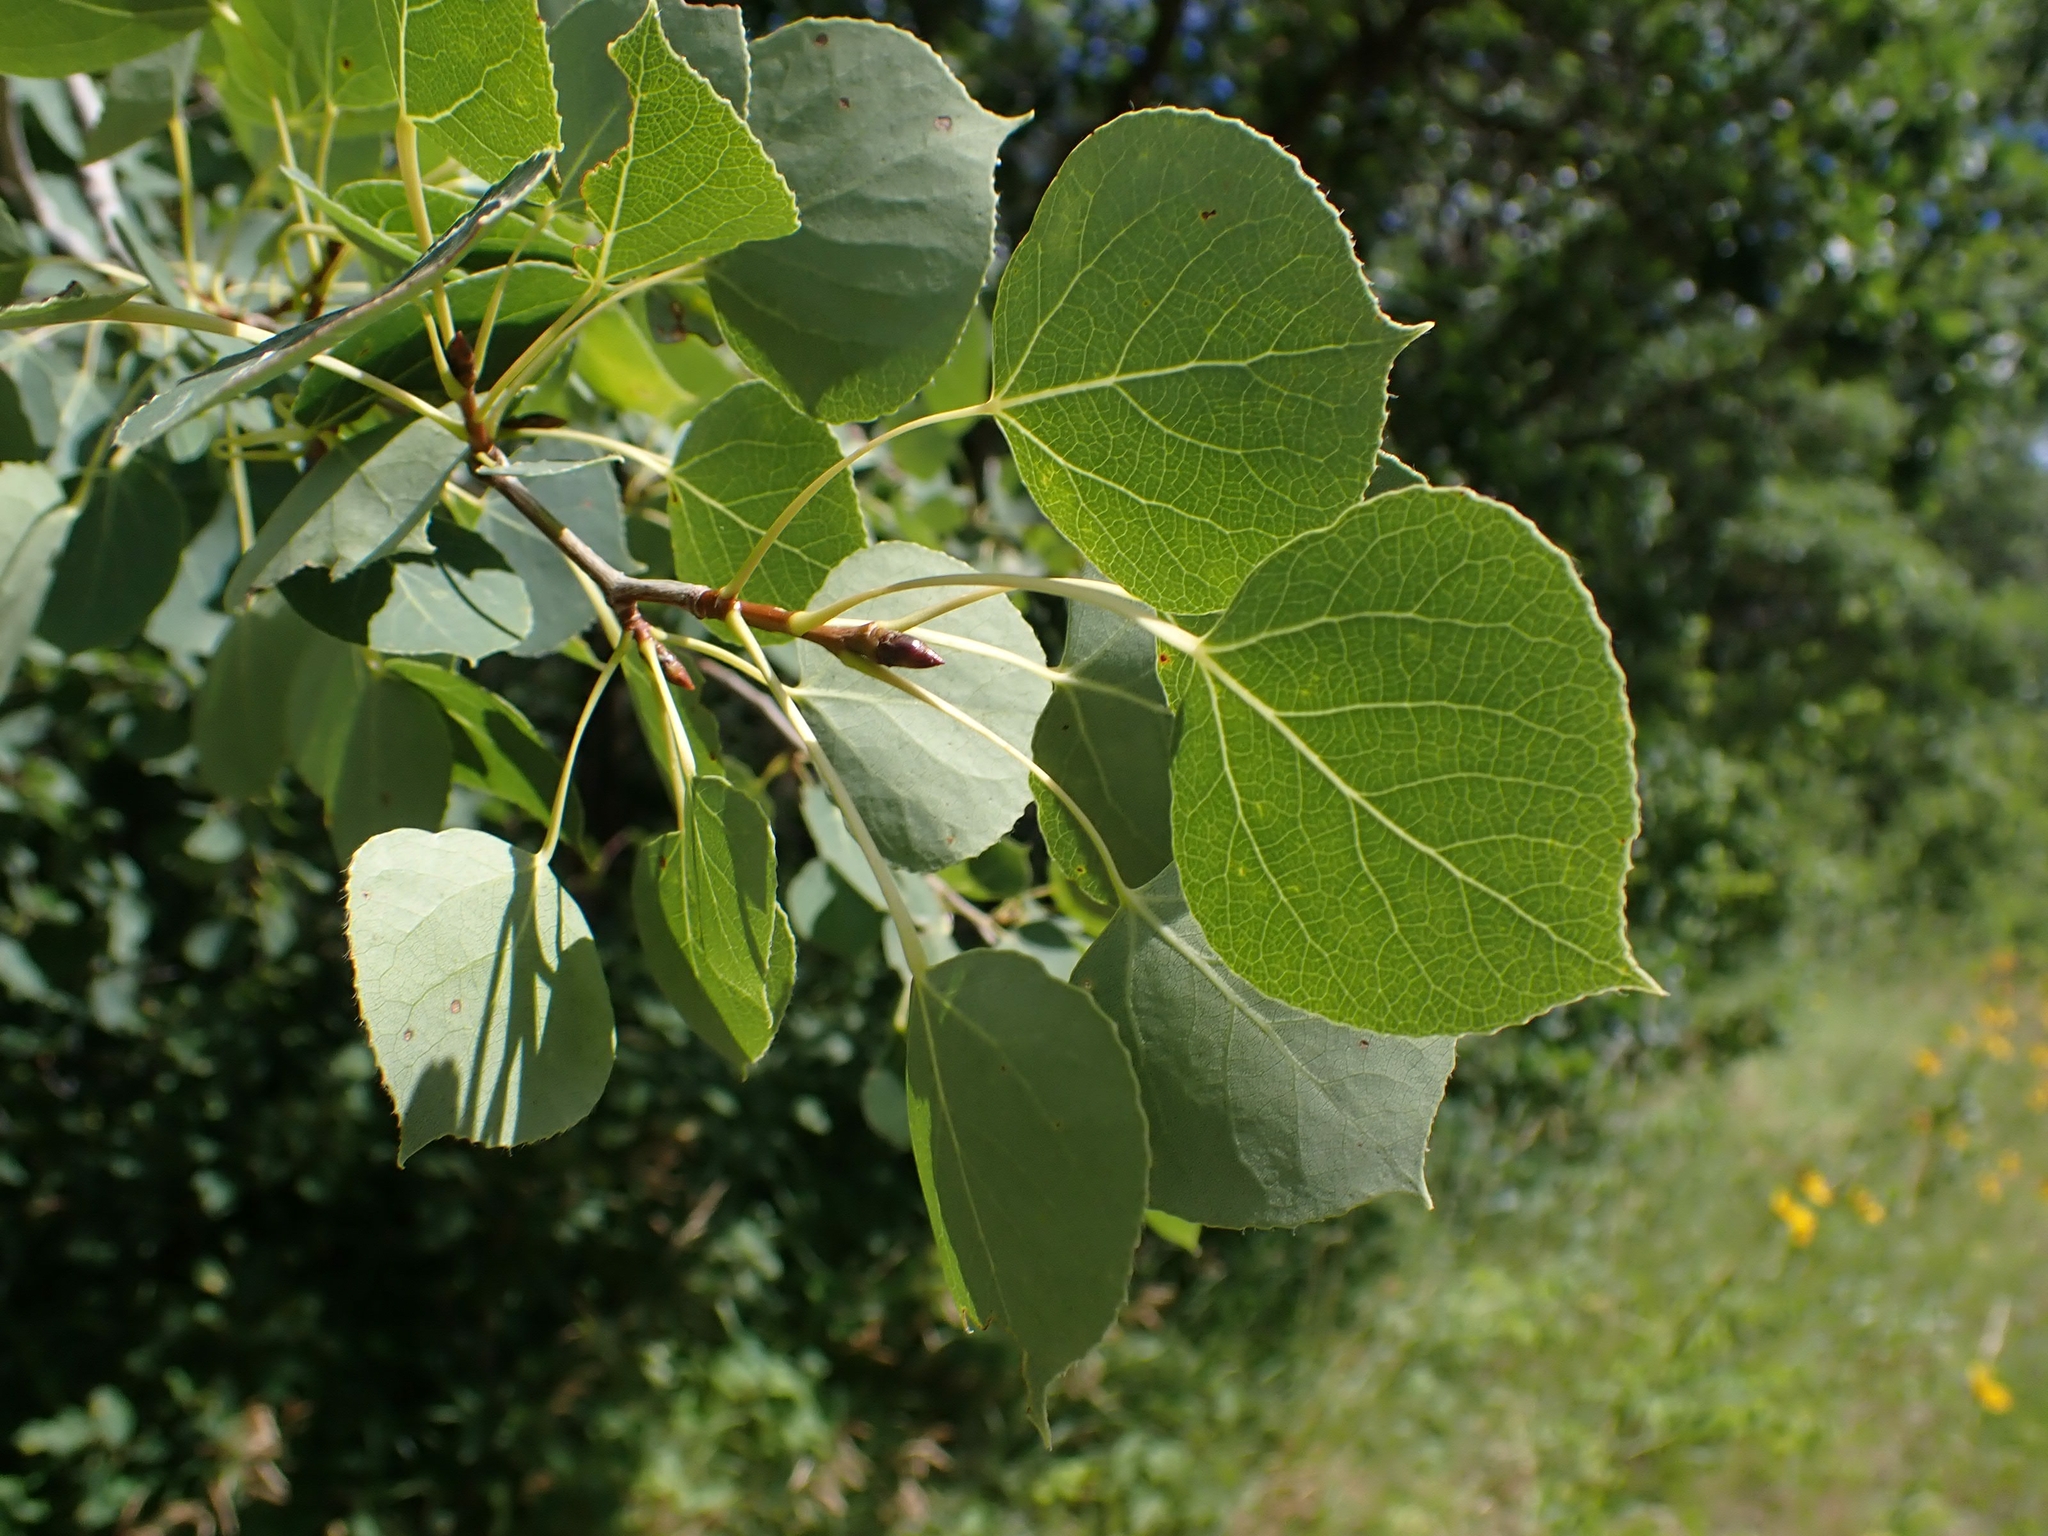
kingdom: Plantae
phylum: Tracheophyta
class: Magnoliopsida
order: Malpighiales
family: Salicaceae
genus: Populus
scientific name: Populus tremuloides
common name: Quaking aspen
